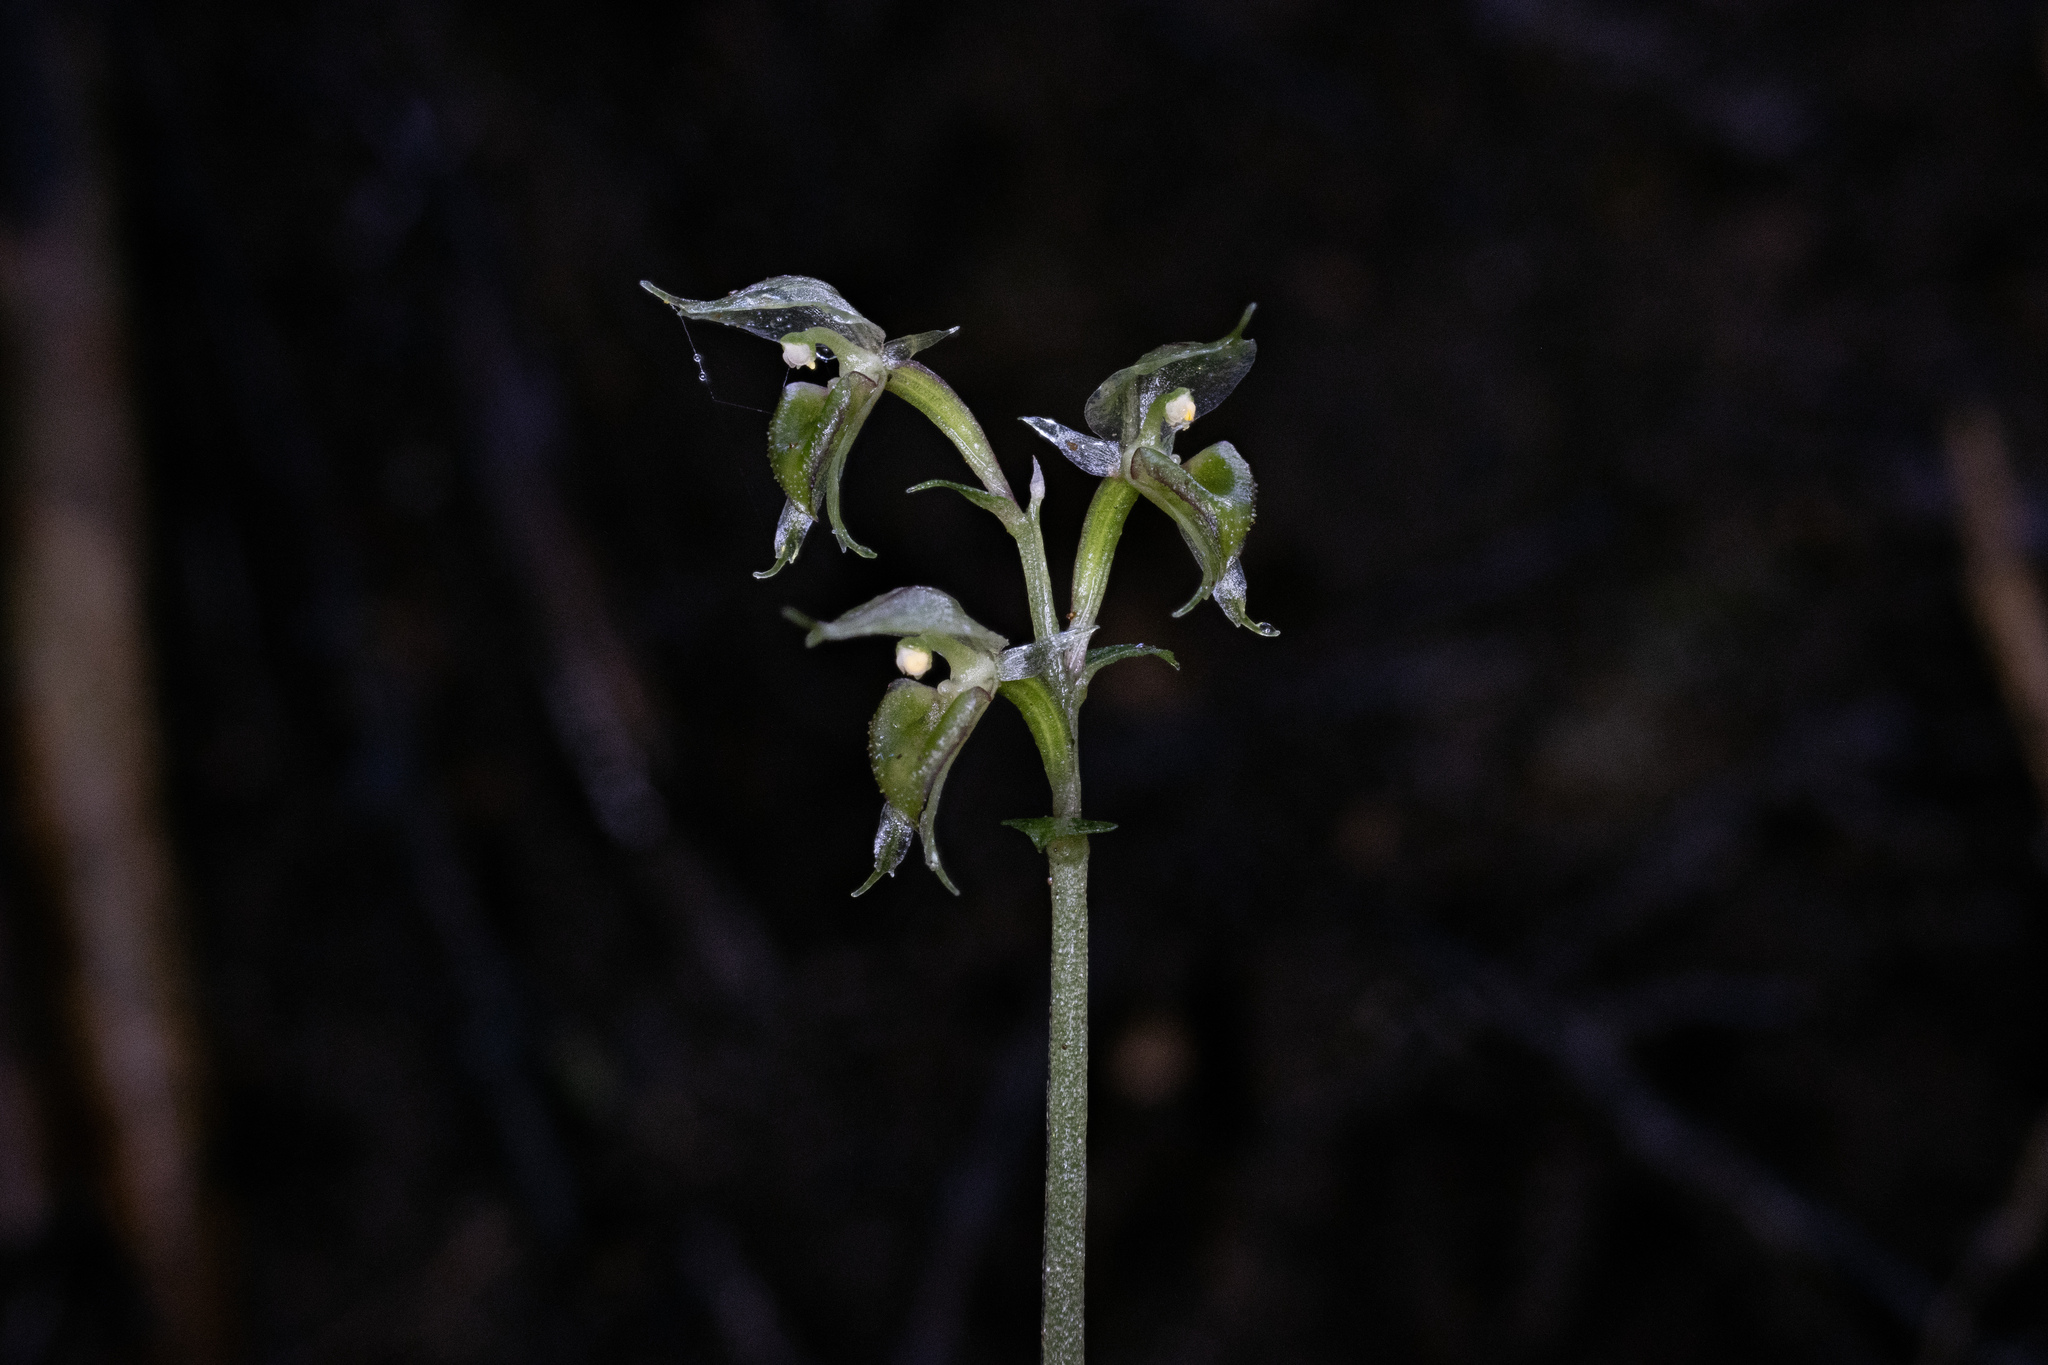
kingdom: Plantae
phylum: Tracheophyta
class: Liliopsida
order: Asparagales
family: Orchidaceae
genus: Acianthus
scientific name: Acianthus sinclairii
